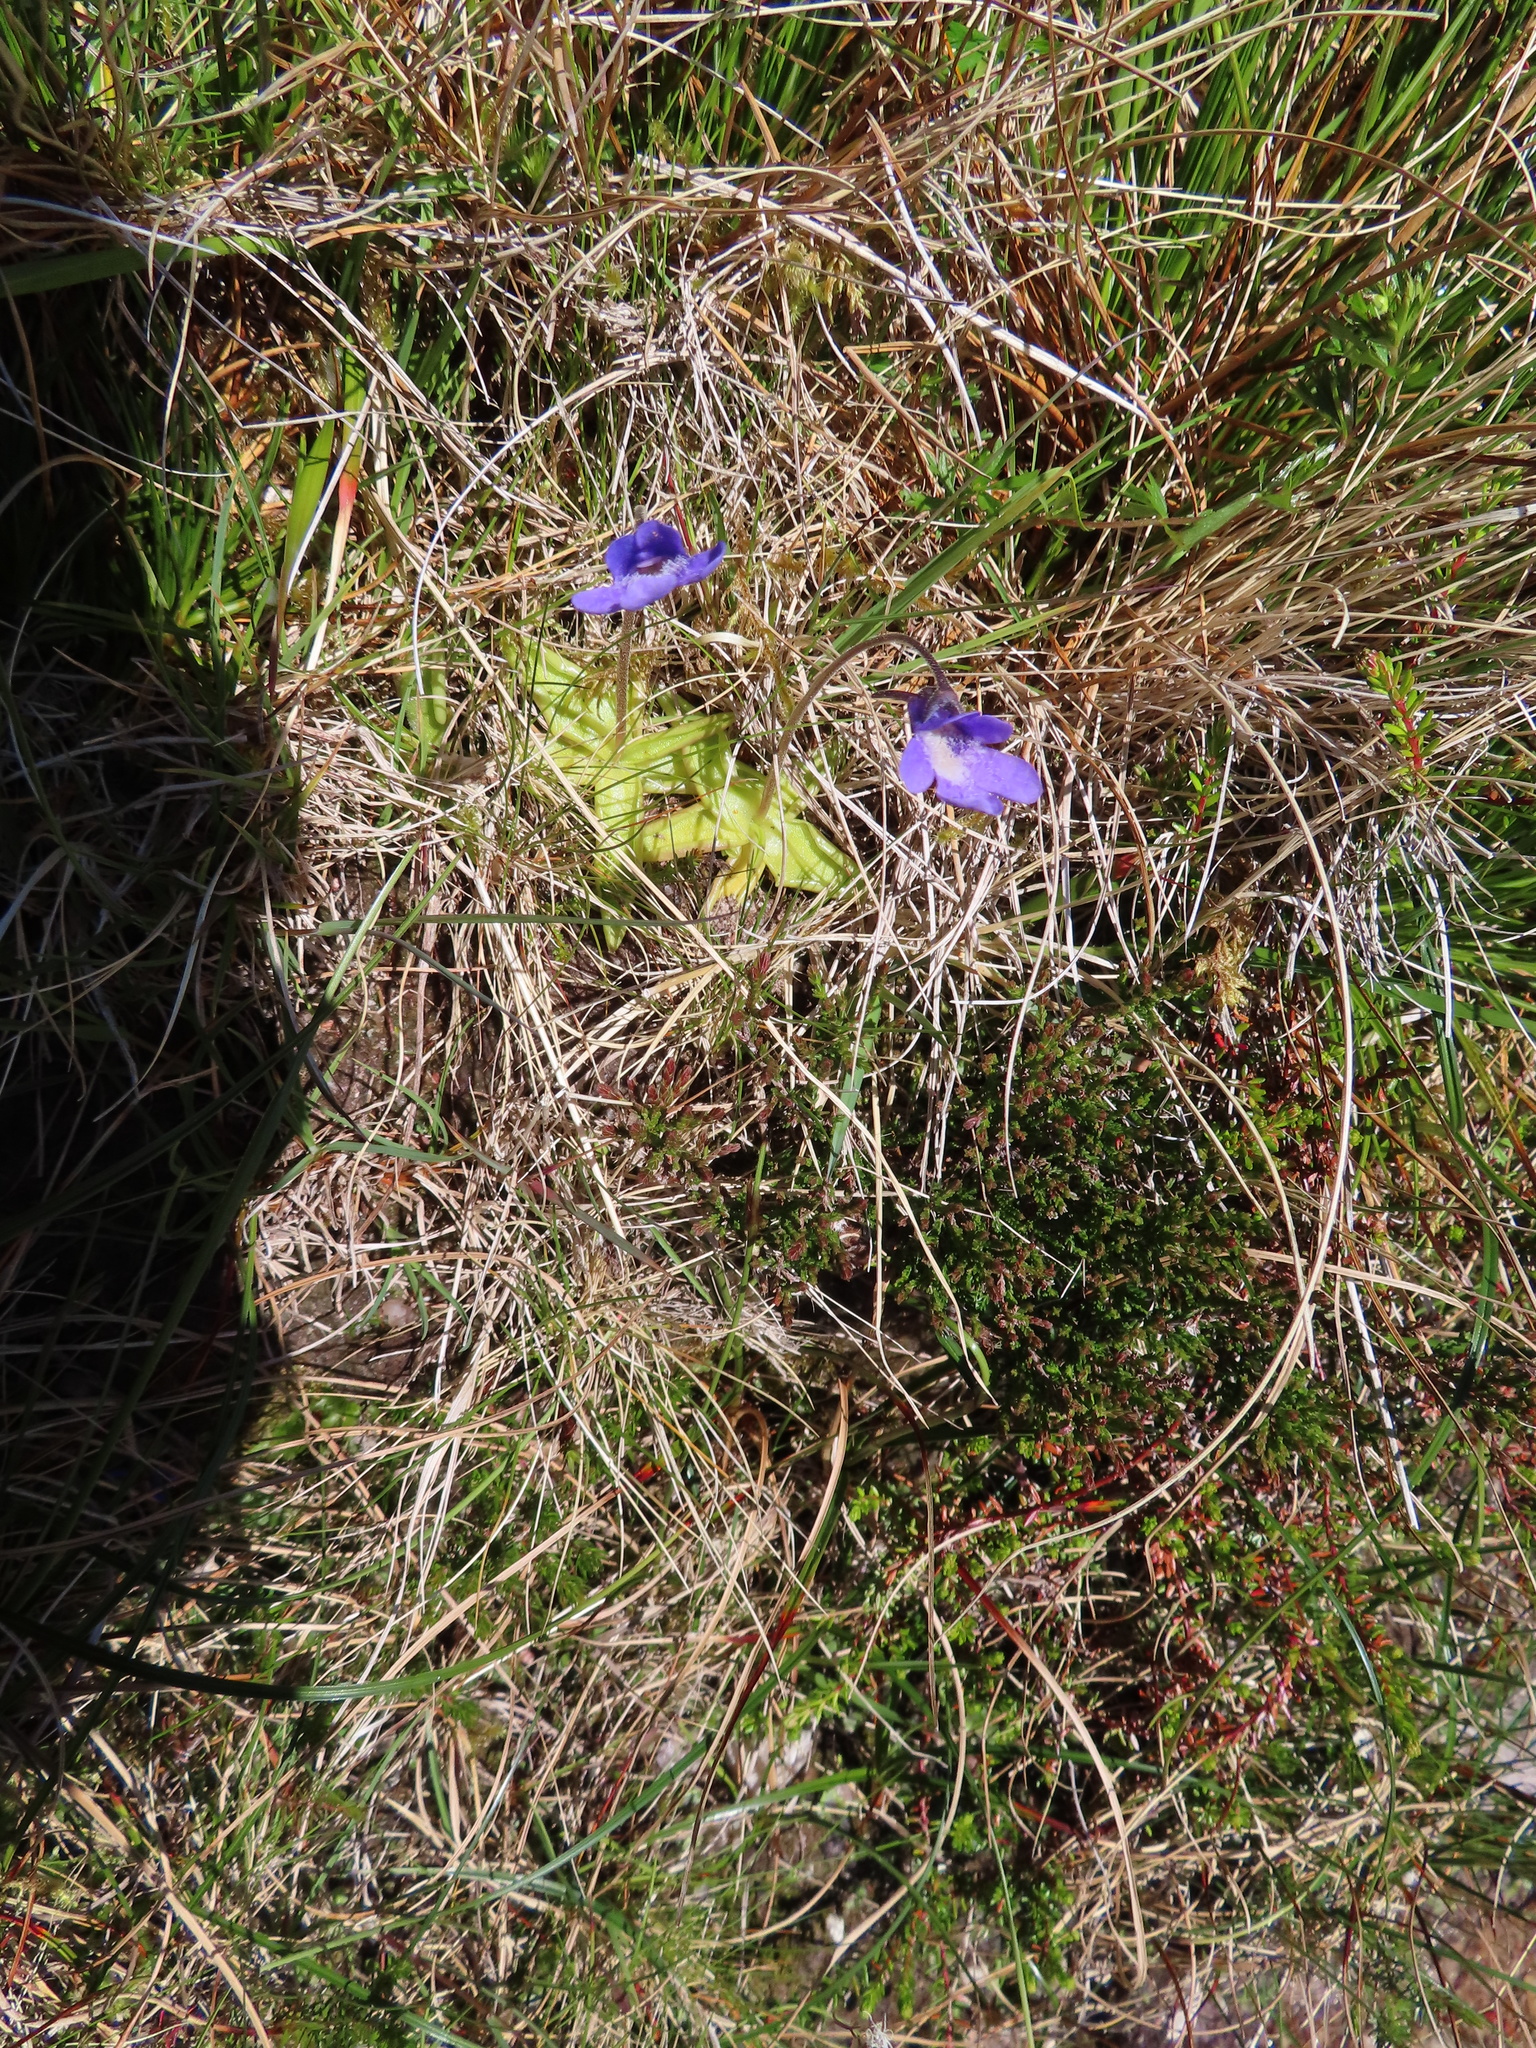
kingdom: Plantae
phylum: Tracheophyta
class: Magnoliopsida
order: Lamiales
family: Lentibulariaceae
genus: Pinguicula
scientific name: Pinguicula vulgaris
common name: Common butterwort
